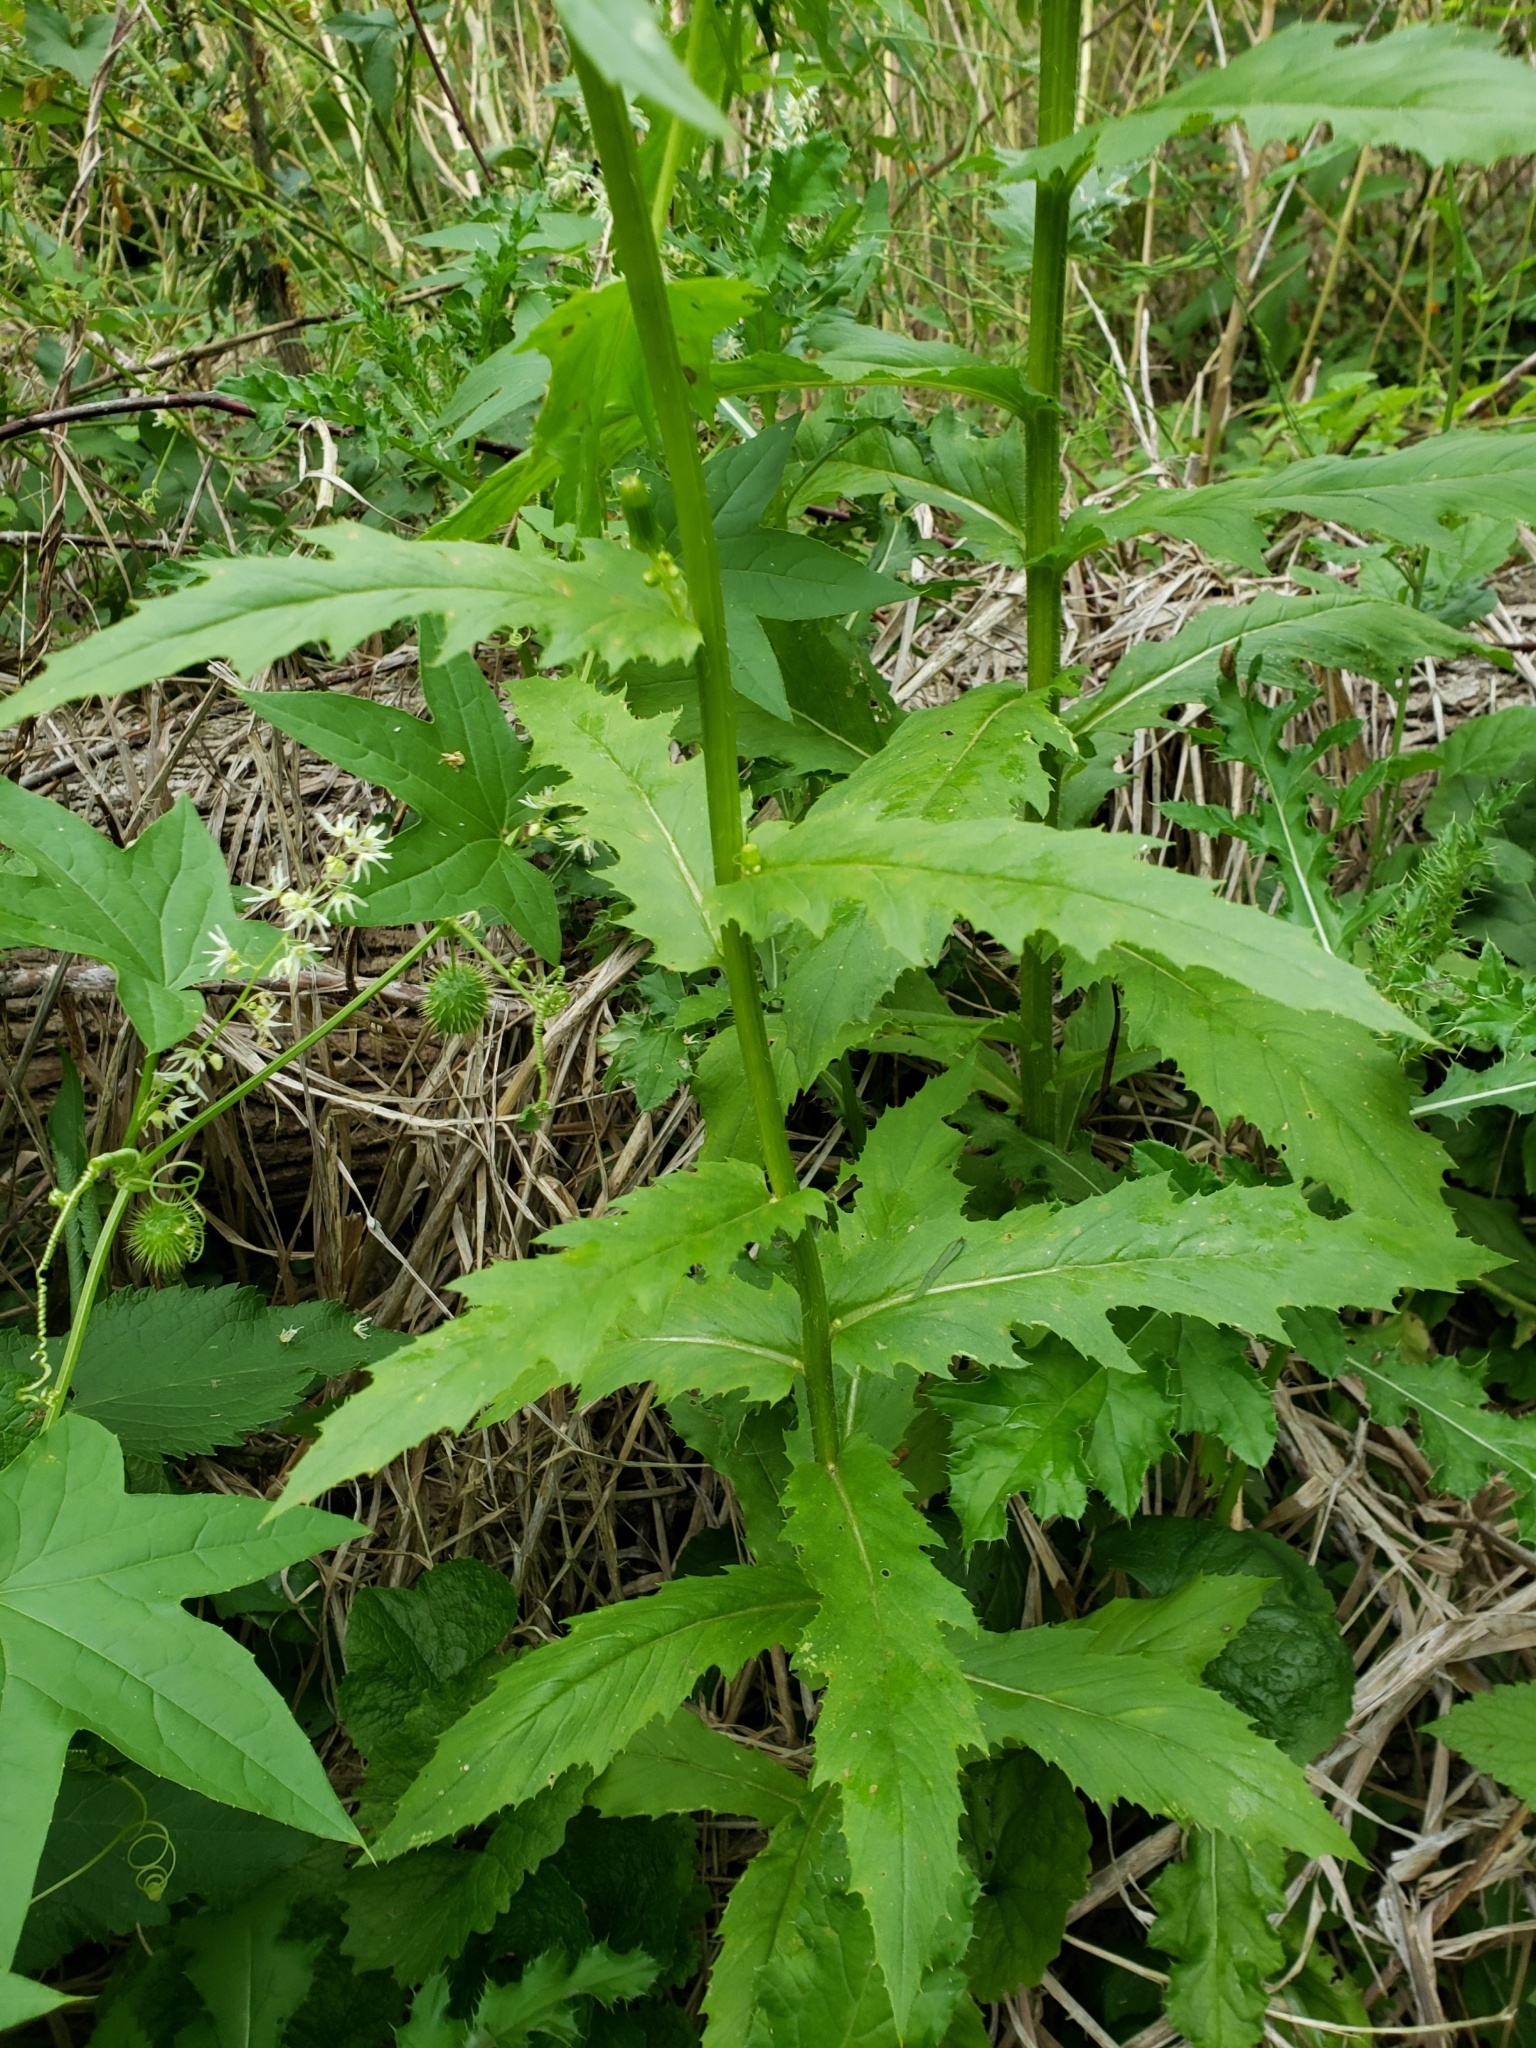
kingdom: Plantae
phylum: Tracheophyta
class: Magnoliopsida
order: Asterales
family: Asteraceae
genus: Erechtites
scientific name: Erechtites hieraciifolius
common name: American burnweed
